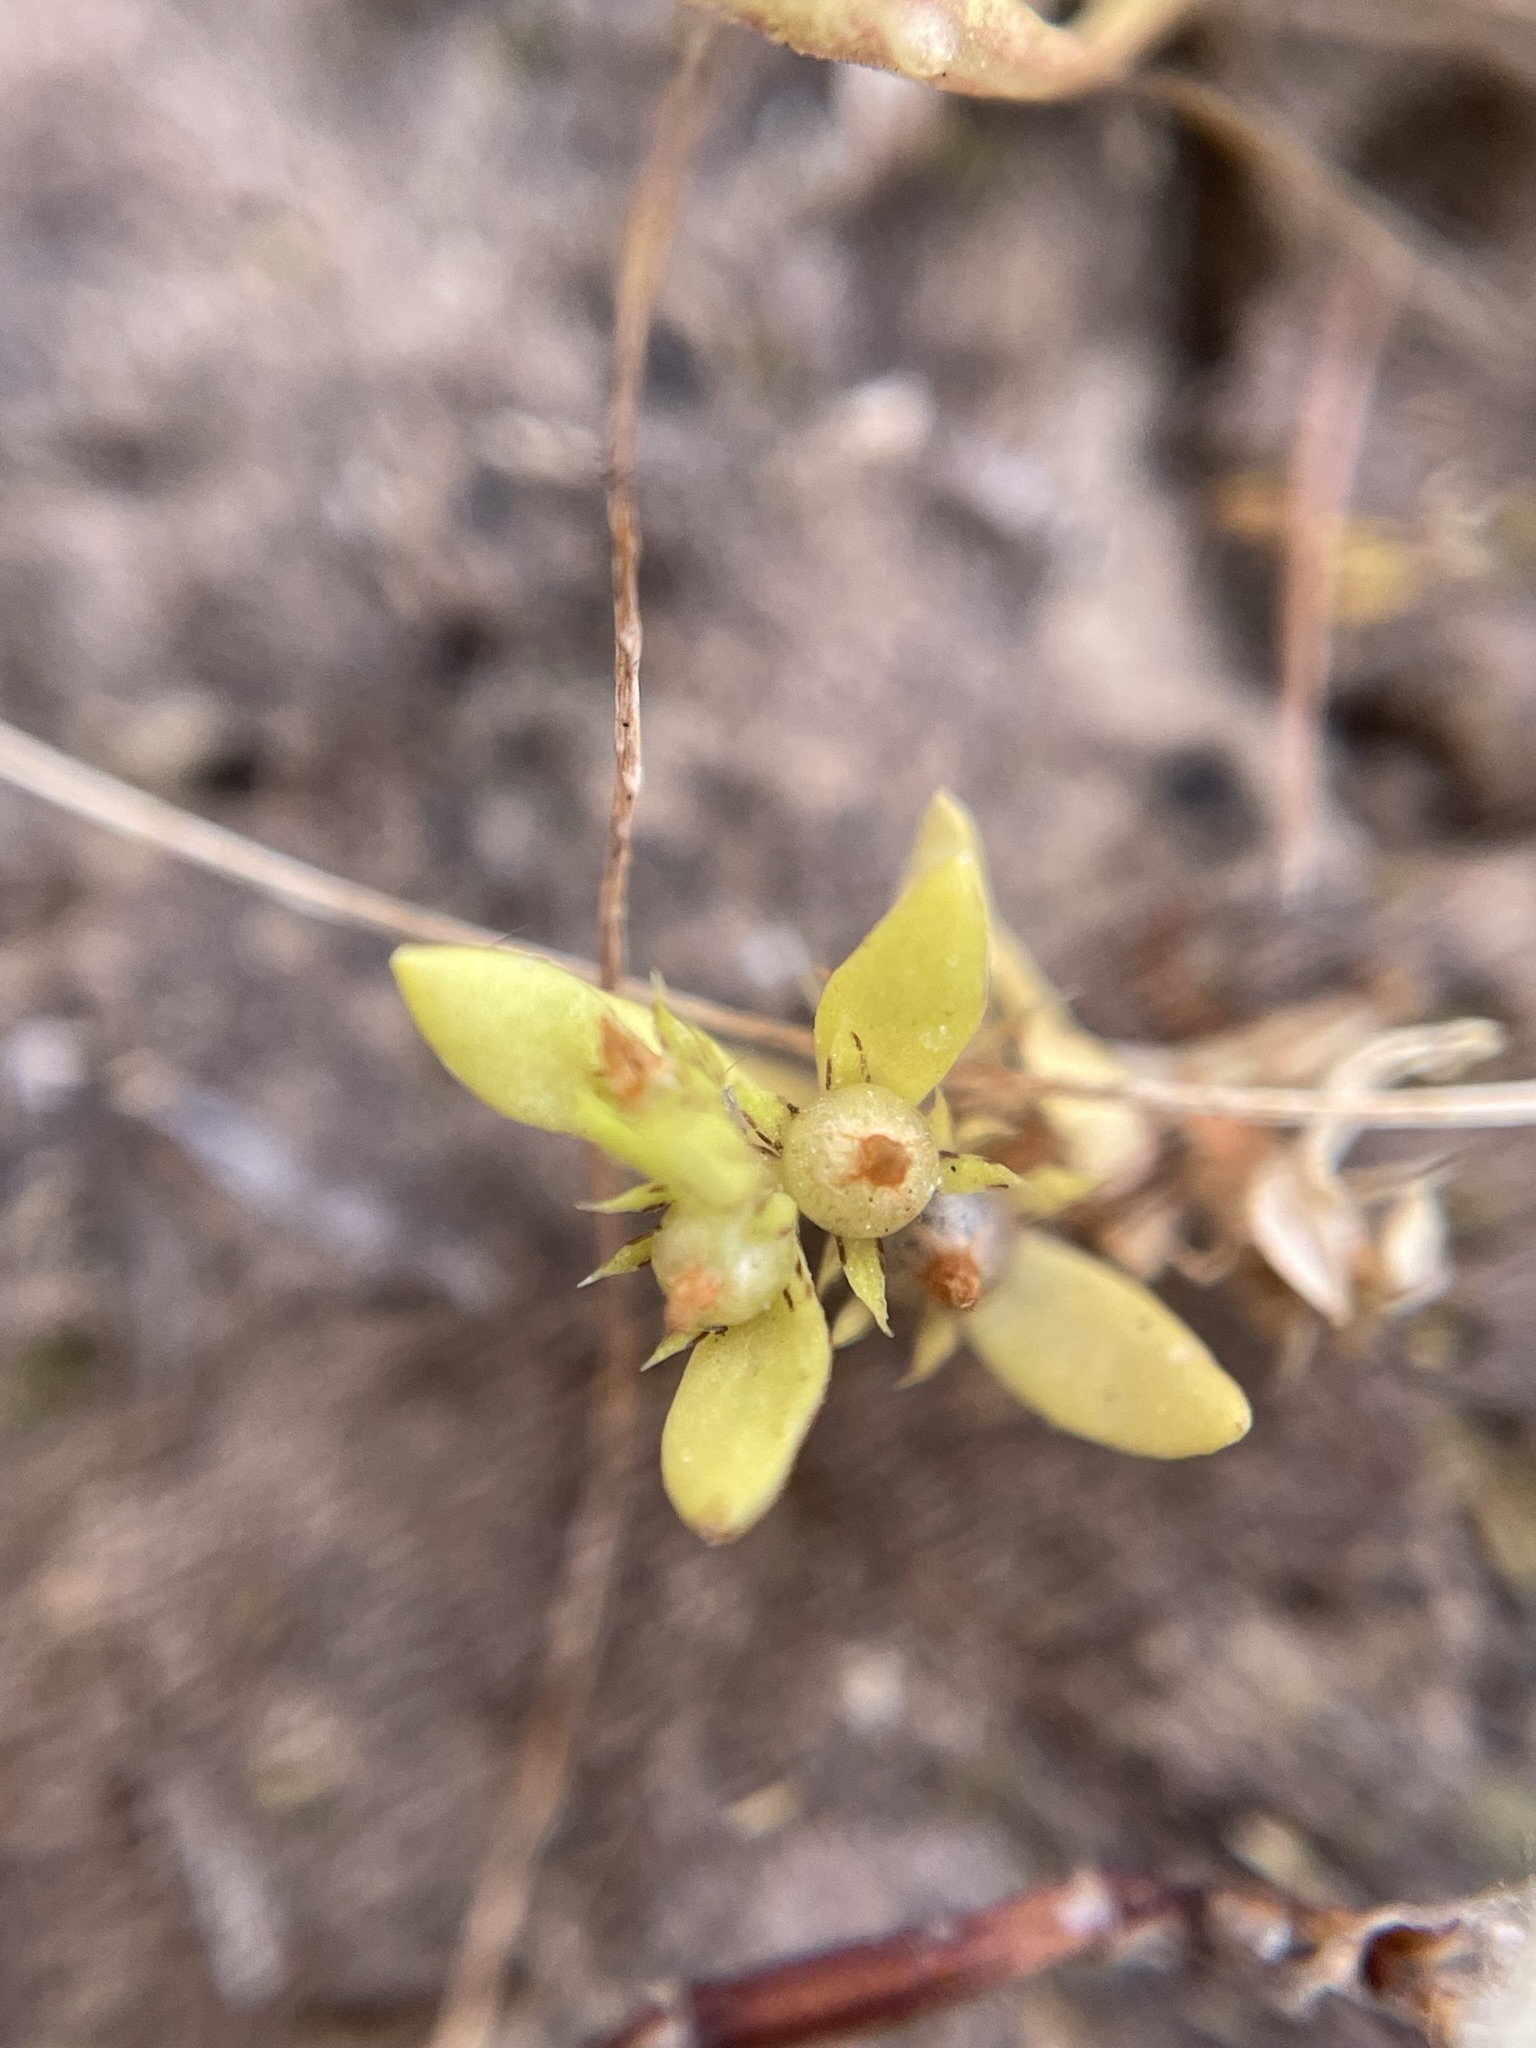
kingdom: Plantae
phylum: Tracheophyta
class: Magnoliopsida
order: Ericales
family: Primulaceae
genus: Lysimachia
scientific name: Lysimachia minima
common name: Chaffweed
